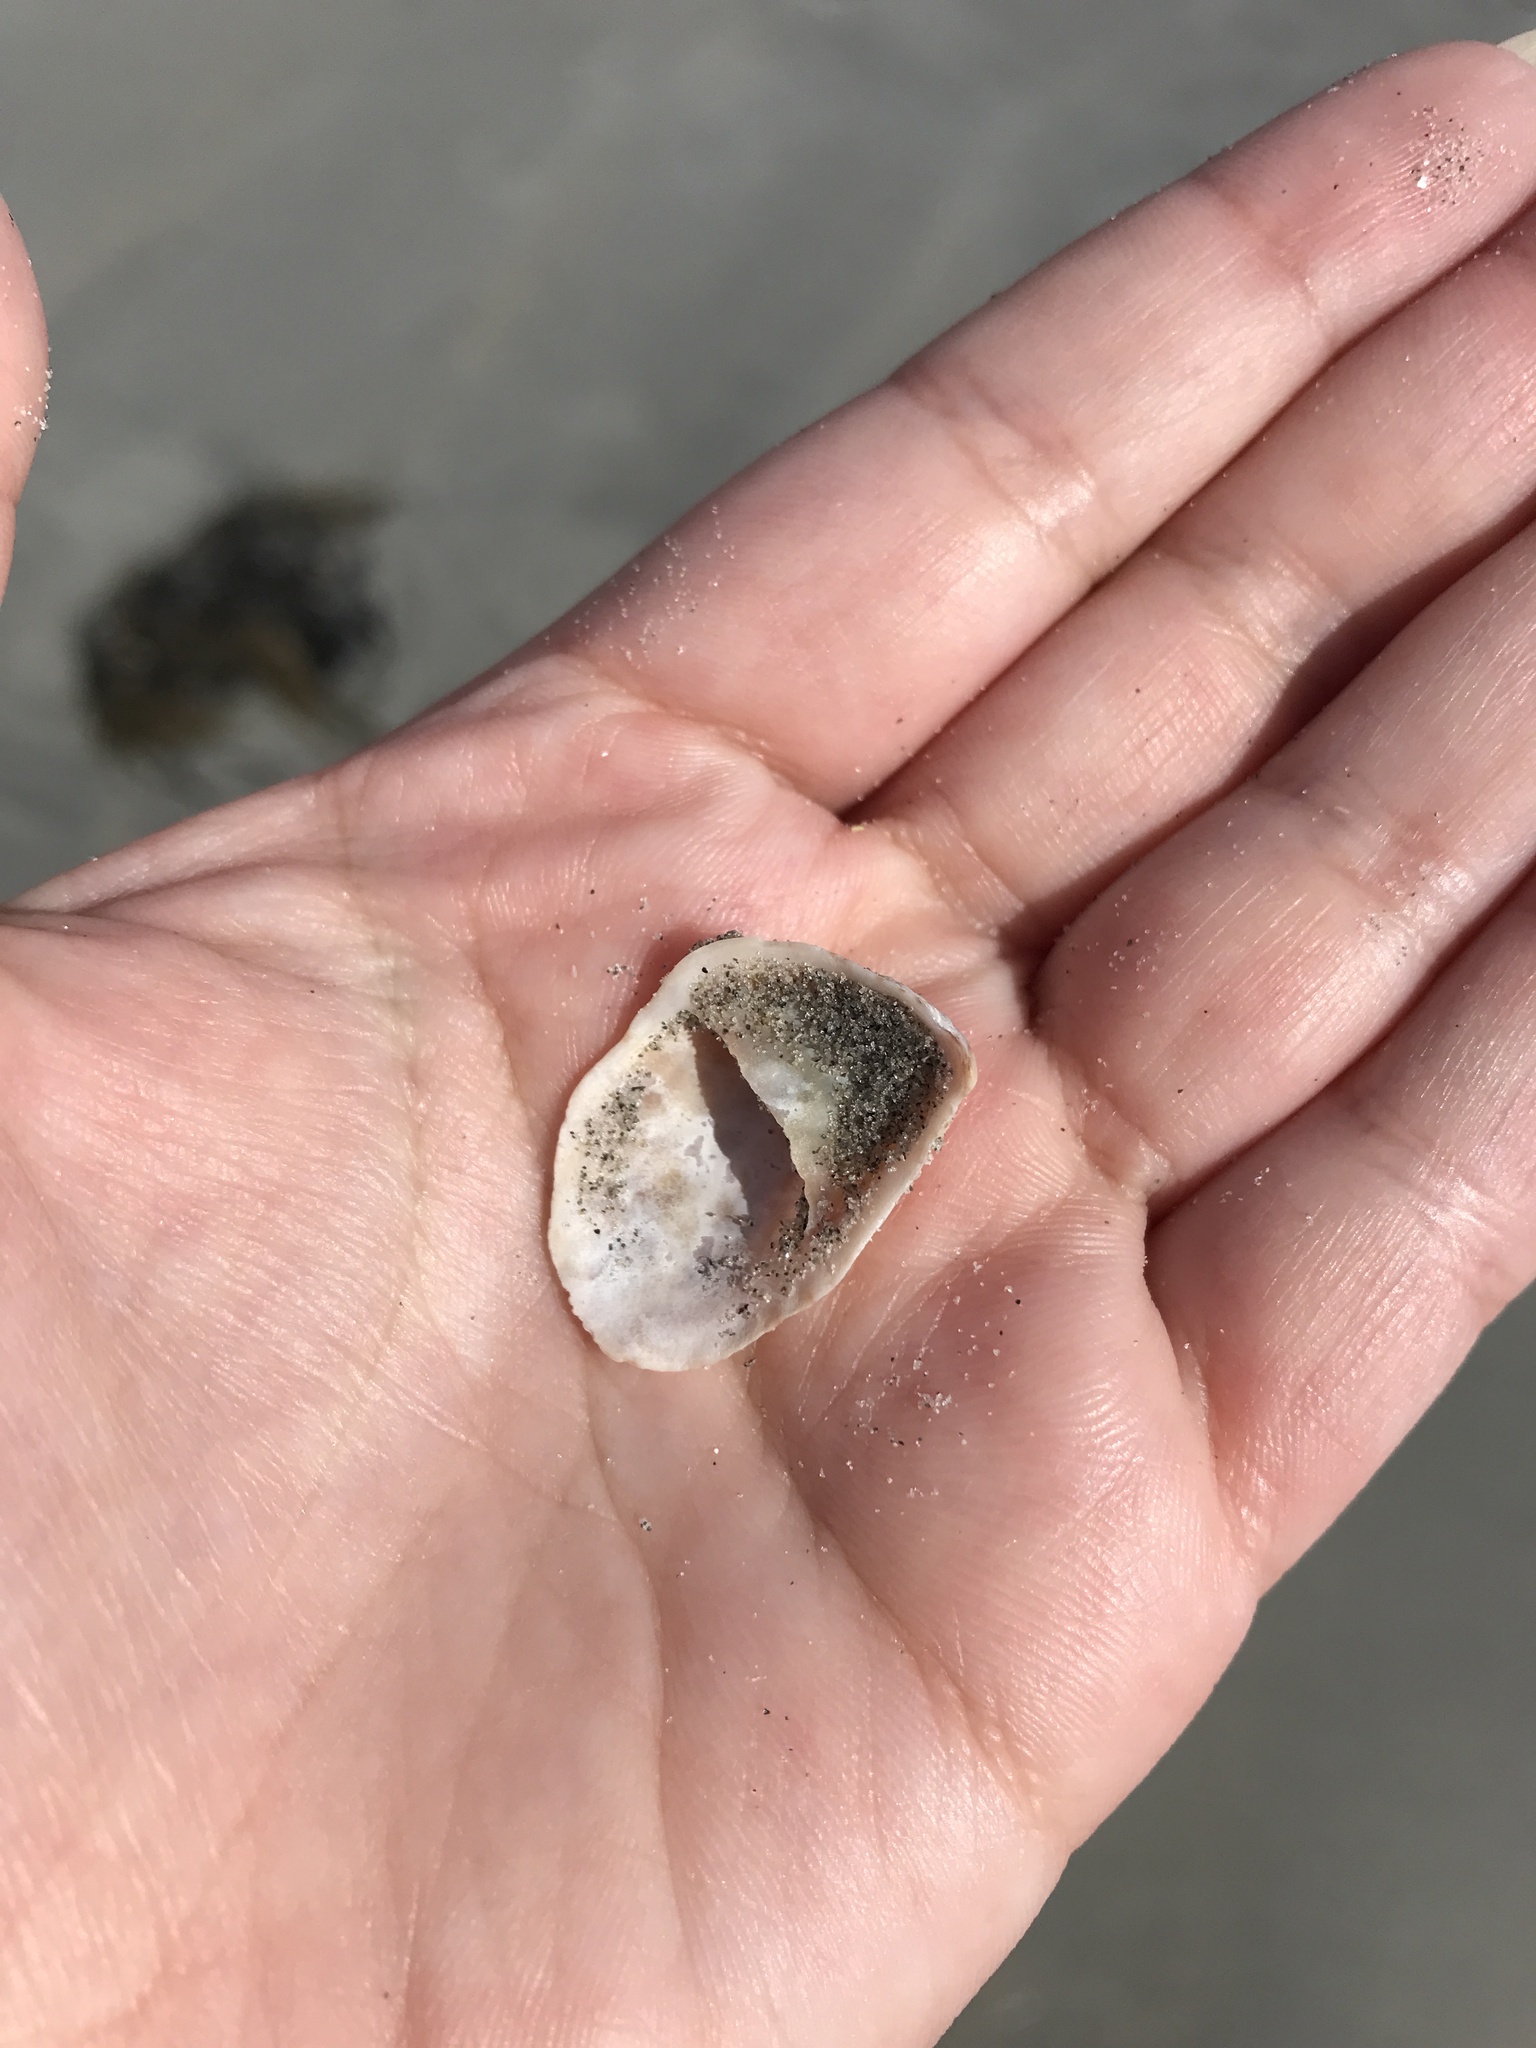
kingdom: Animalia
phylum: Mollusca
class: Gastropoda
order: Littorinimorpha
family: Calyptraeidae
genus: Crepidula
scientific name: Crepidula fornicata
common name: Slipper limpet
